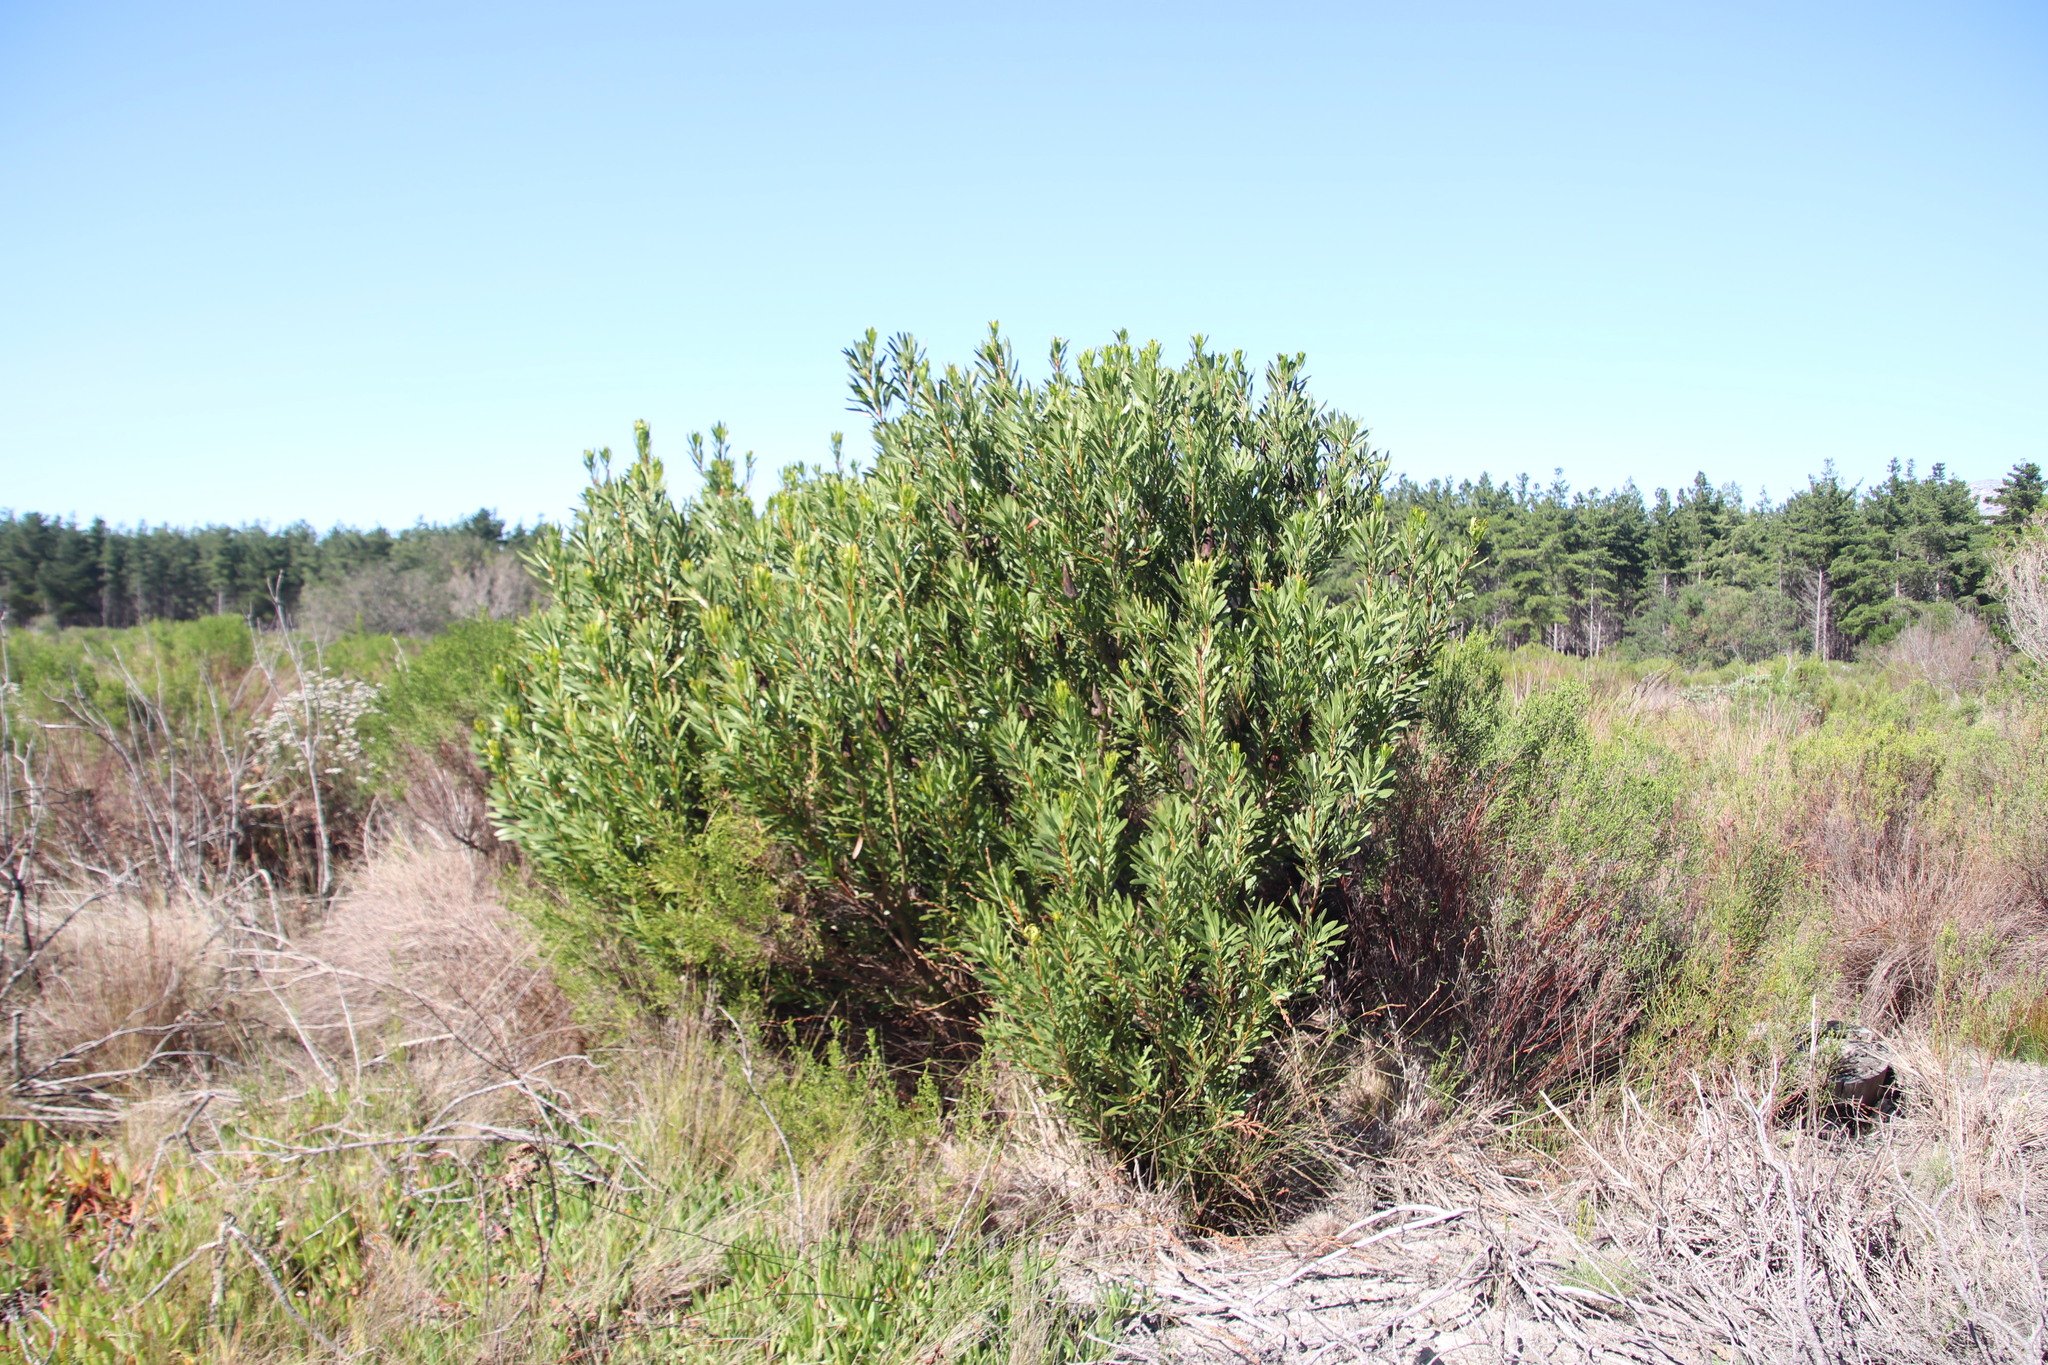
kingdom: Plantae
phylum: Tracheophyta
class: Magnoliopsida
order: Proteales
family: Proteaceae
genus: Protea
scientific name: Protea repens
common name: Sugarbush
